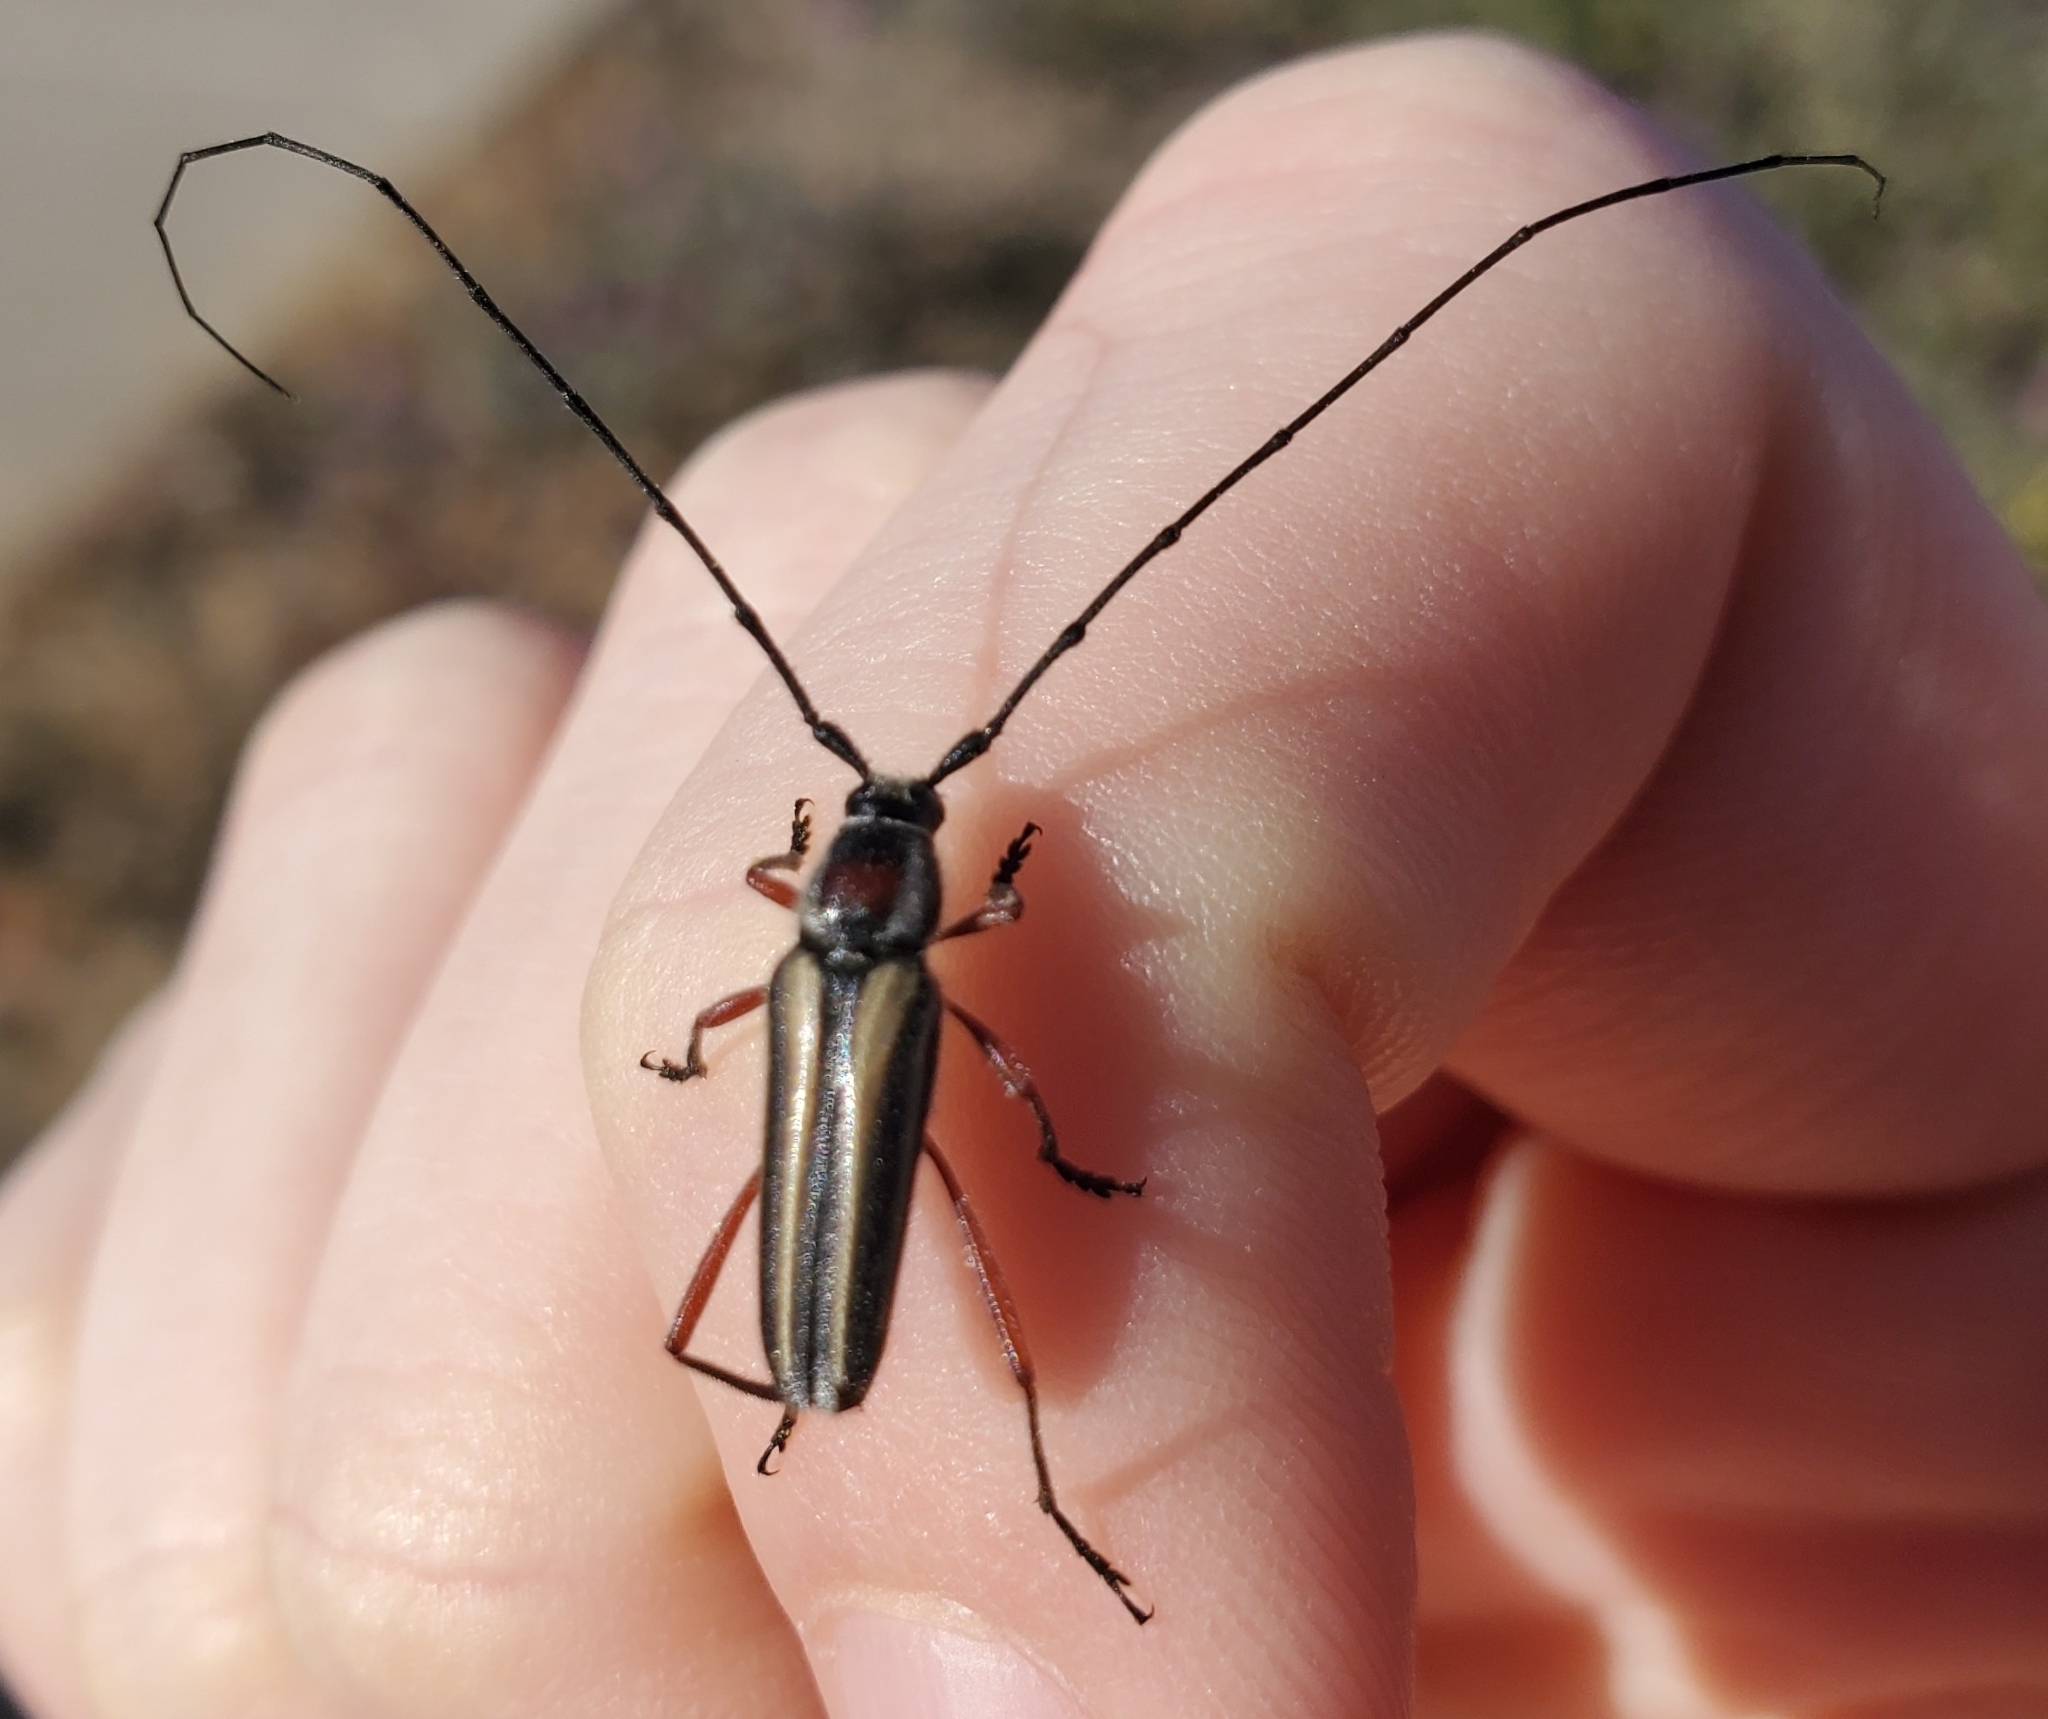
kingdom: Animalia
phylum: Arthropoda
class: Insecta
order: Coleoptera
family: Cerambycidae
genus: Sphaenothecus
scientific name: Sphaenothecus bilineatus
